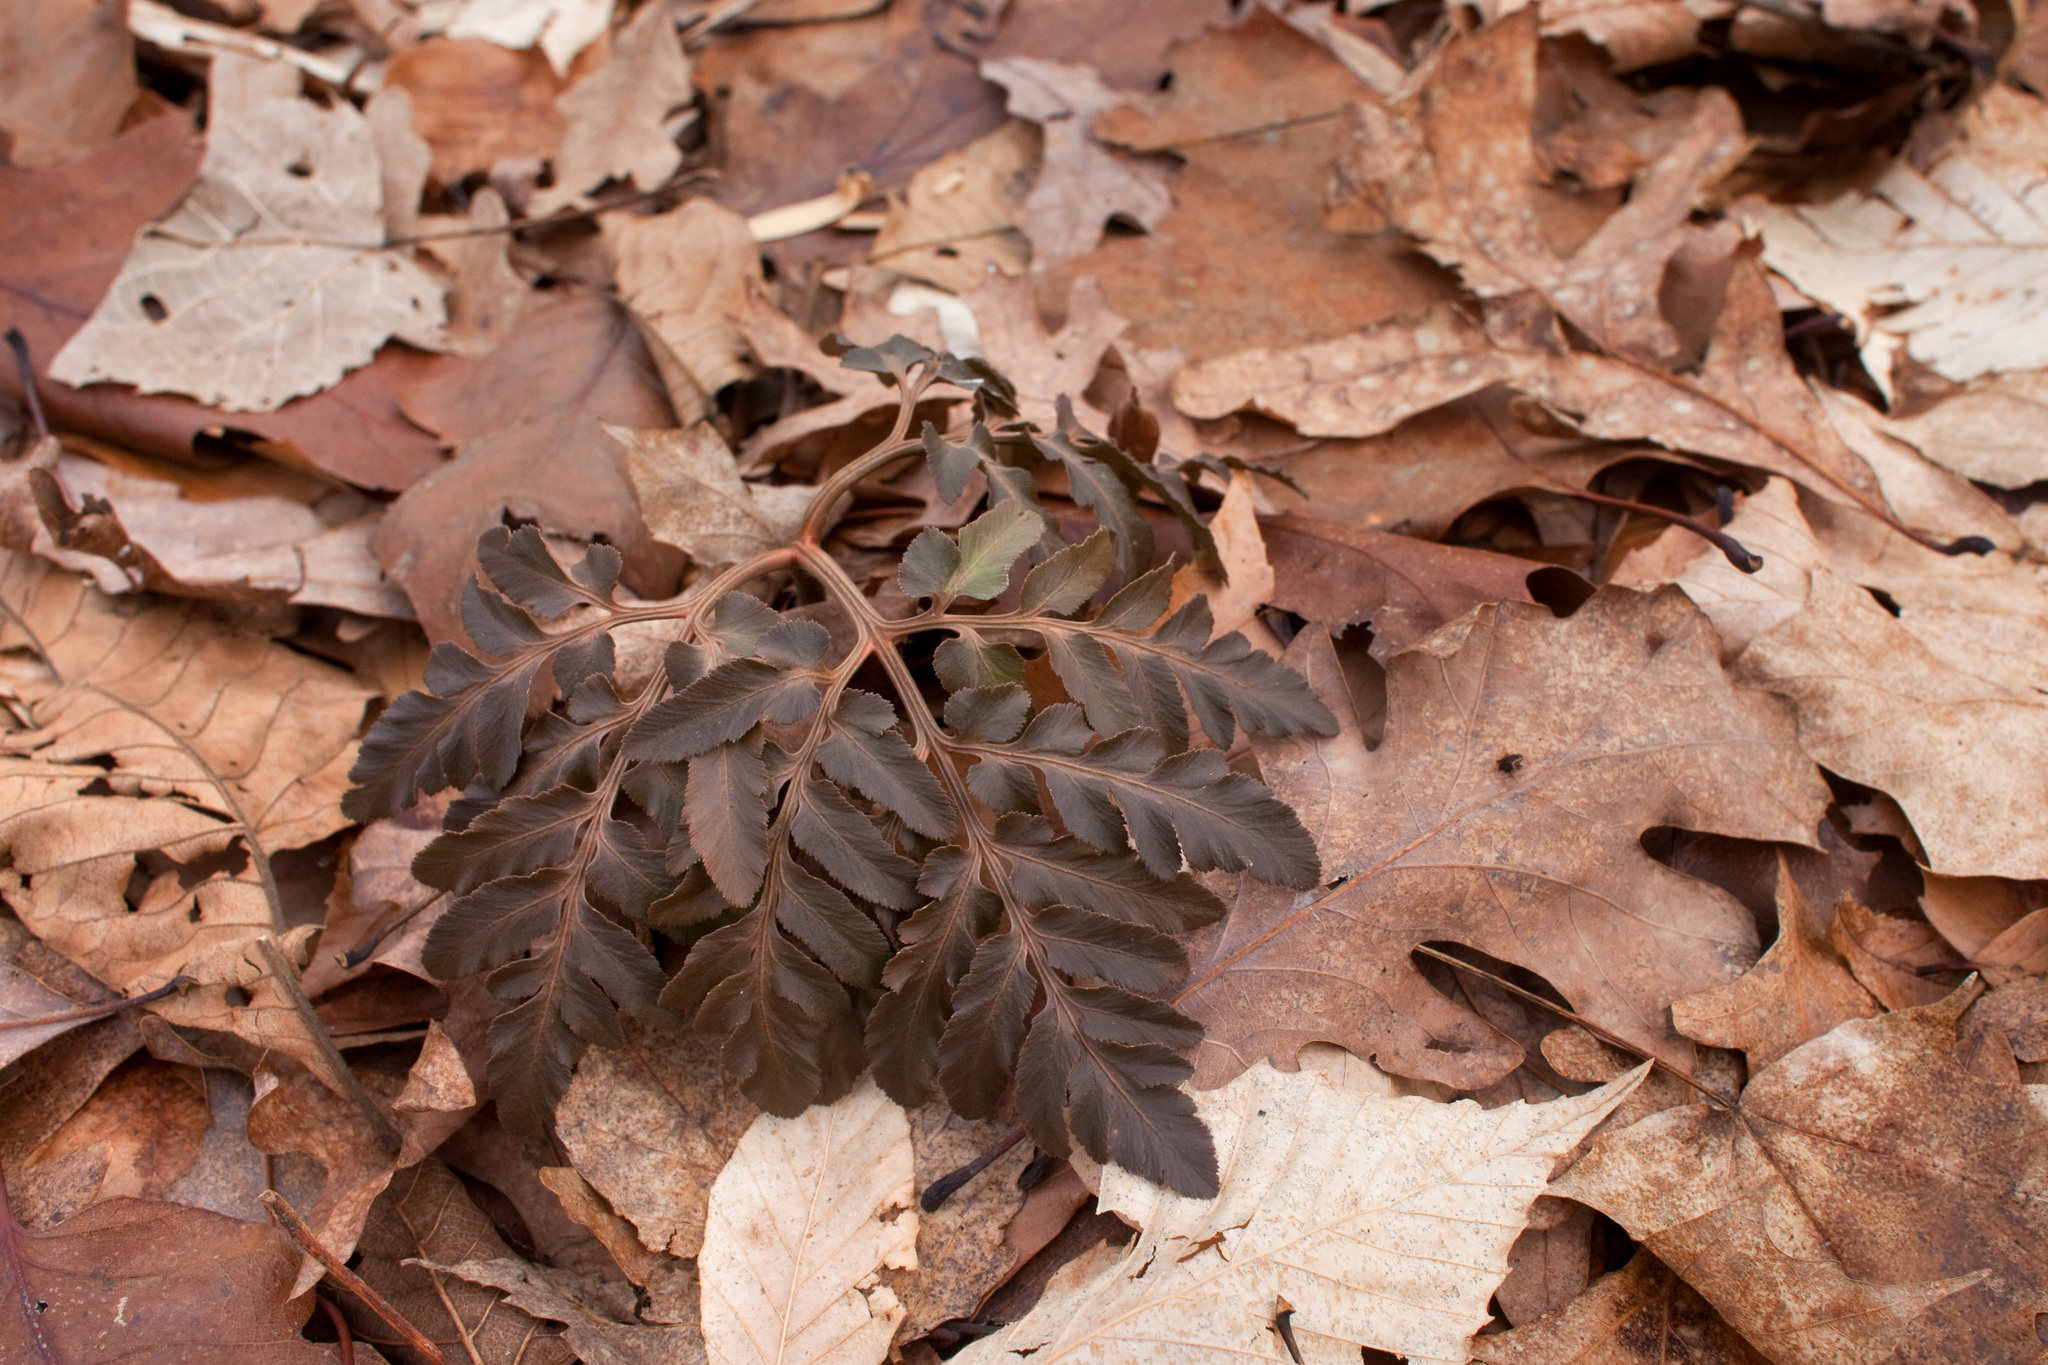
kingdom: Plantae
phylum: Tracheophyta
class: Polypodiopsida
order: Ophioglossales
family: Ophioglossaceae
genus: Sceptridium
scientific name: Sceptridium dissectum
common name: Cut-leaved grapefern
